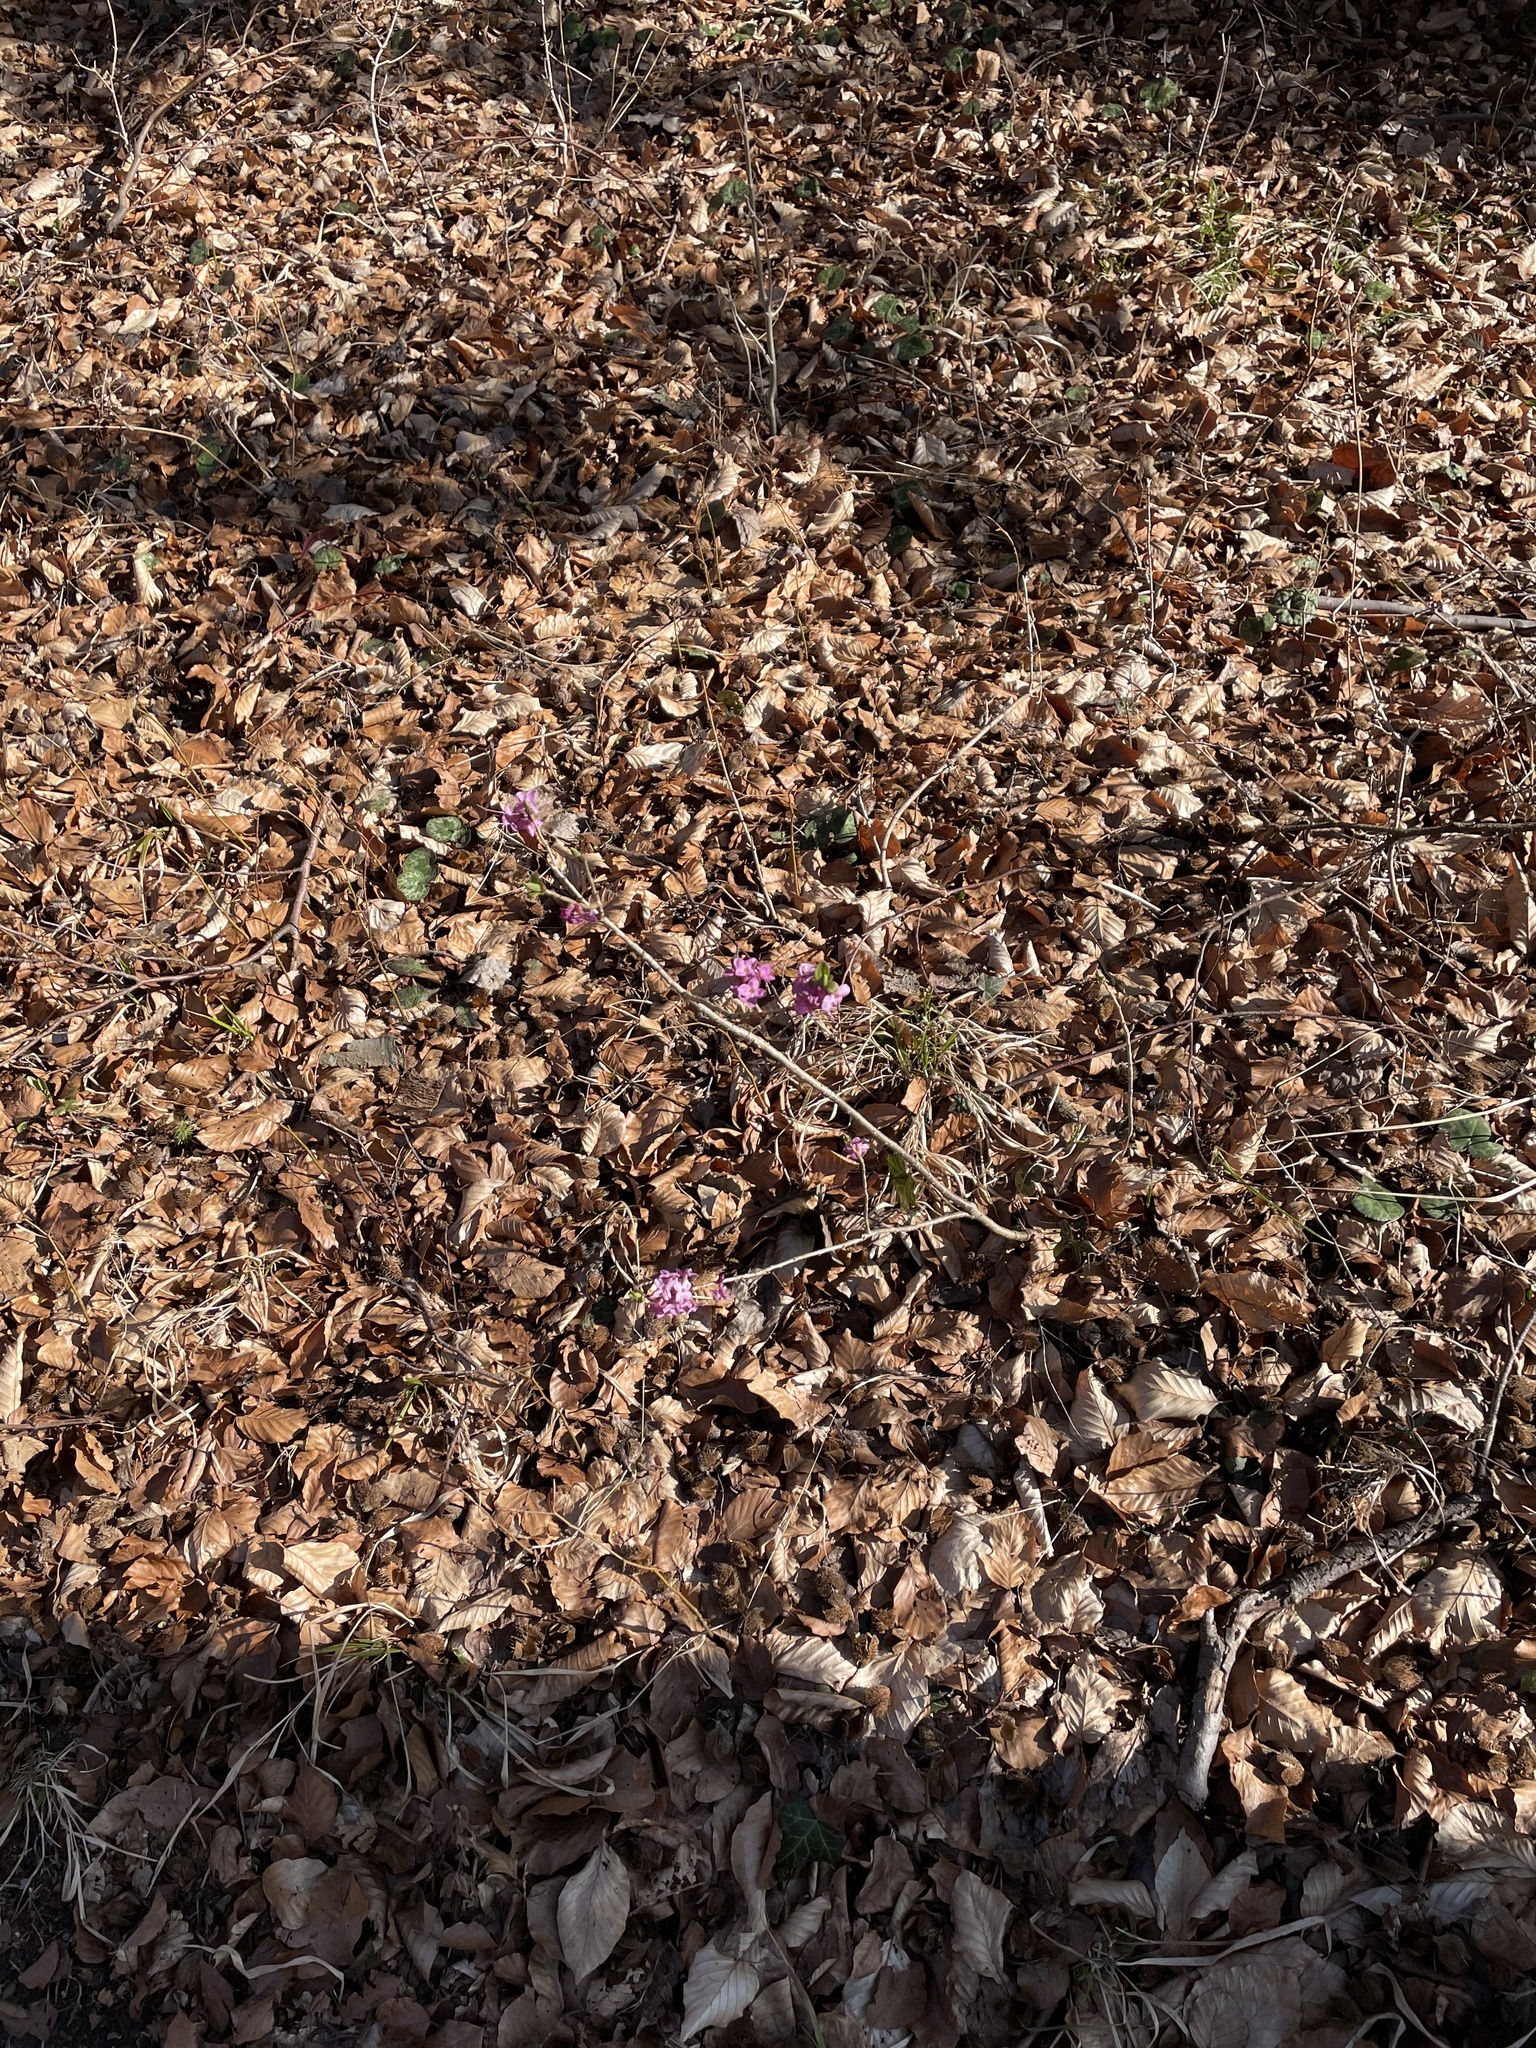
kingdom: Plantae
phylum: Tracheophyta
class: Magnoliopsida
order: Malvales
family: Thymelaeaceae
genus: Daphne
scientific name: Daphne mezereum
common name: Mezereon
